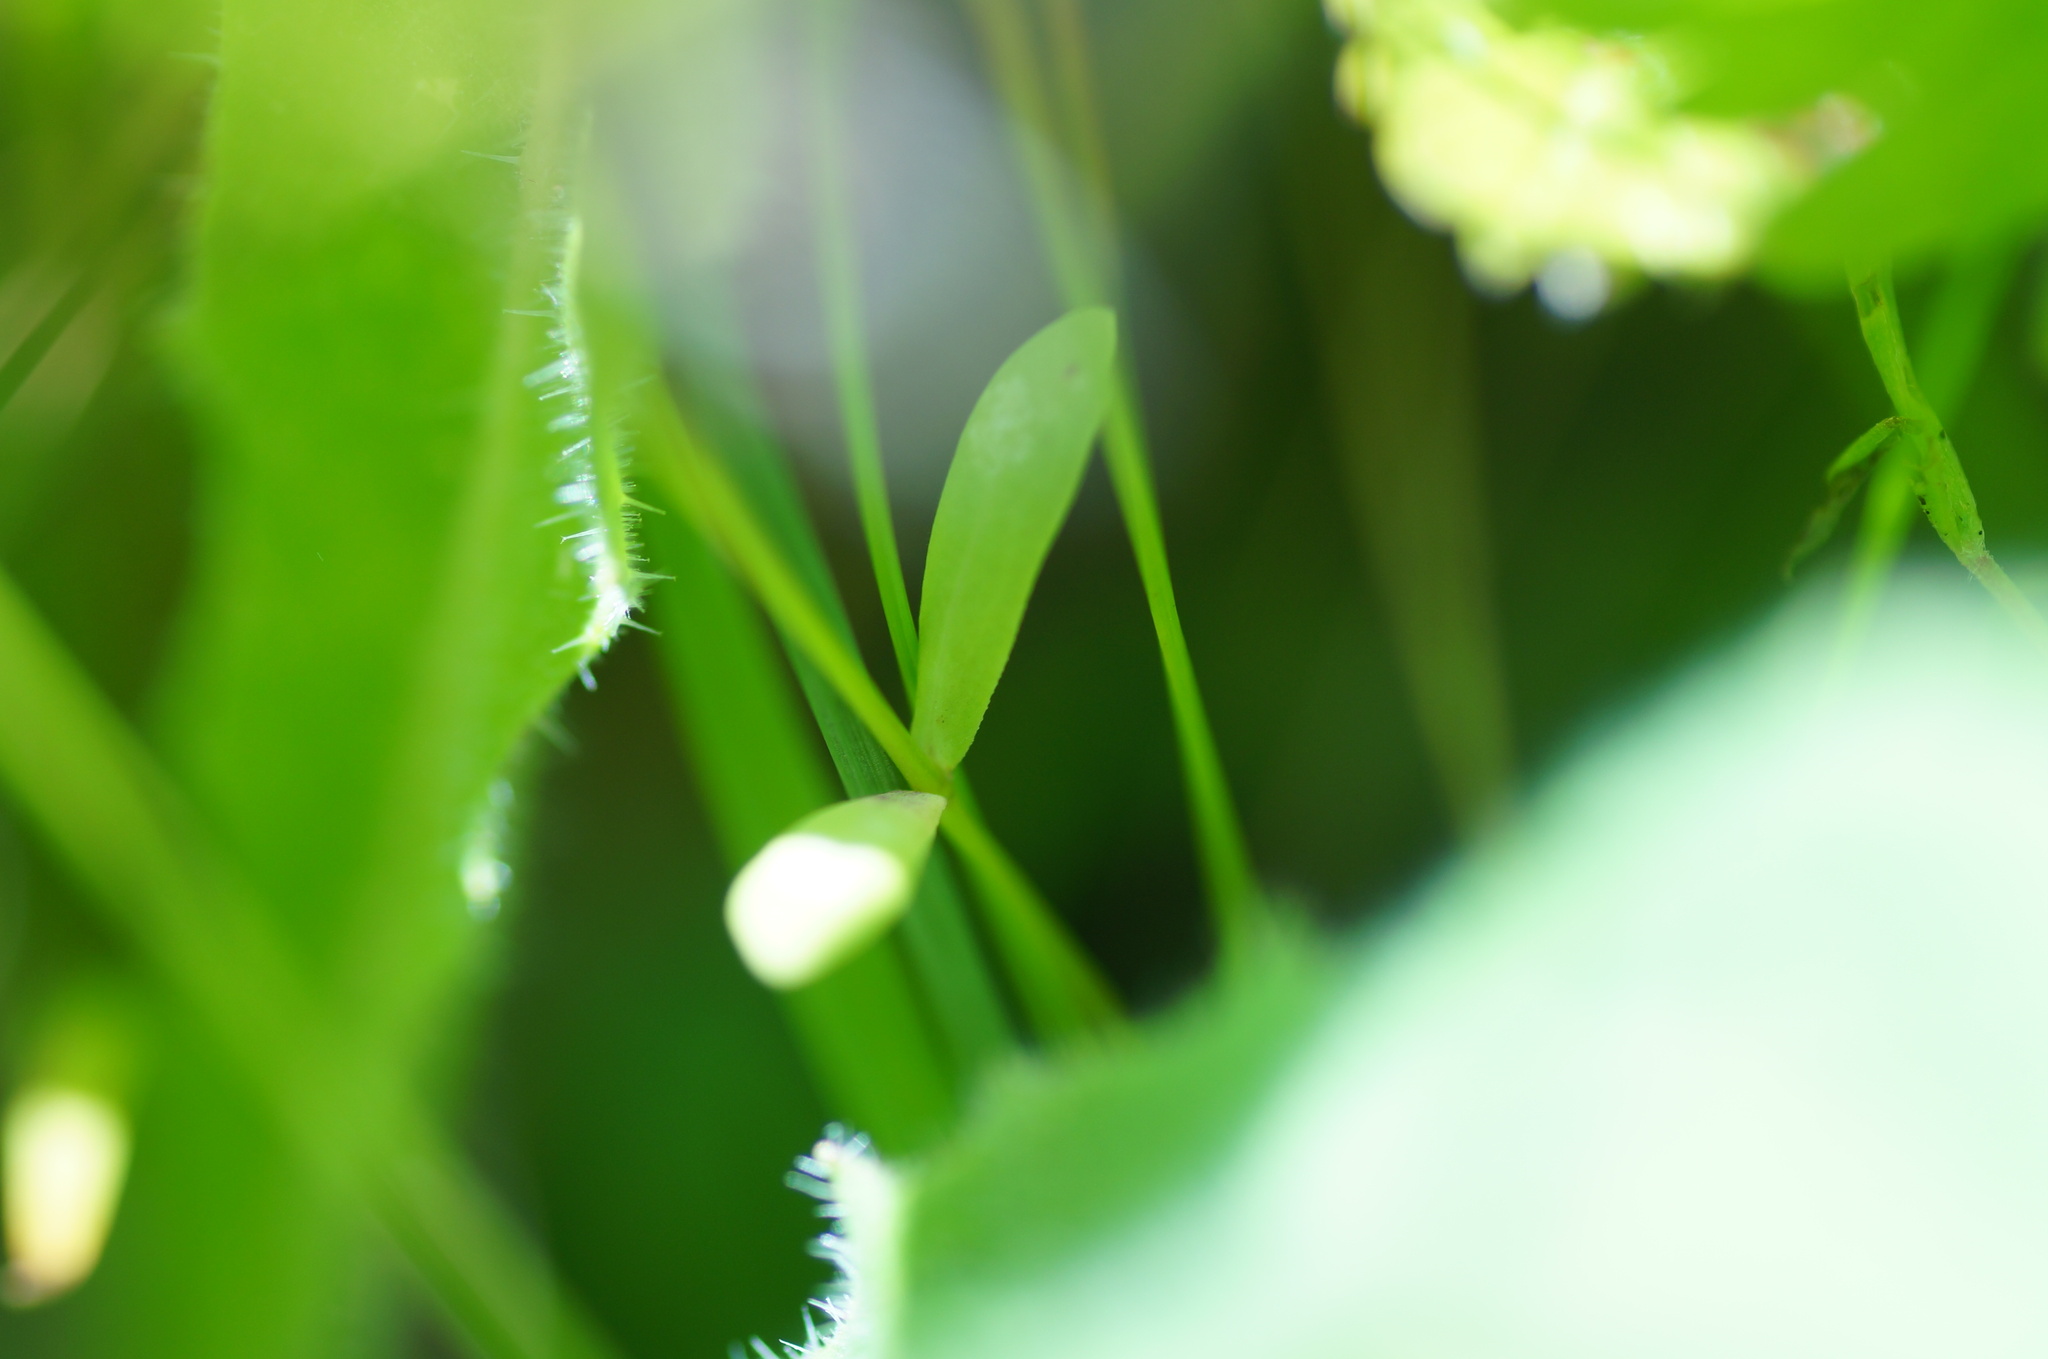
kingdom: Plantae
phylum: Tracheophyta
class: Magnoliopsida
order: Malpighiales
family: Linaceae
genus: Linum
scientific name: Linum catharticum
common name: Fairy flax
